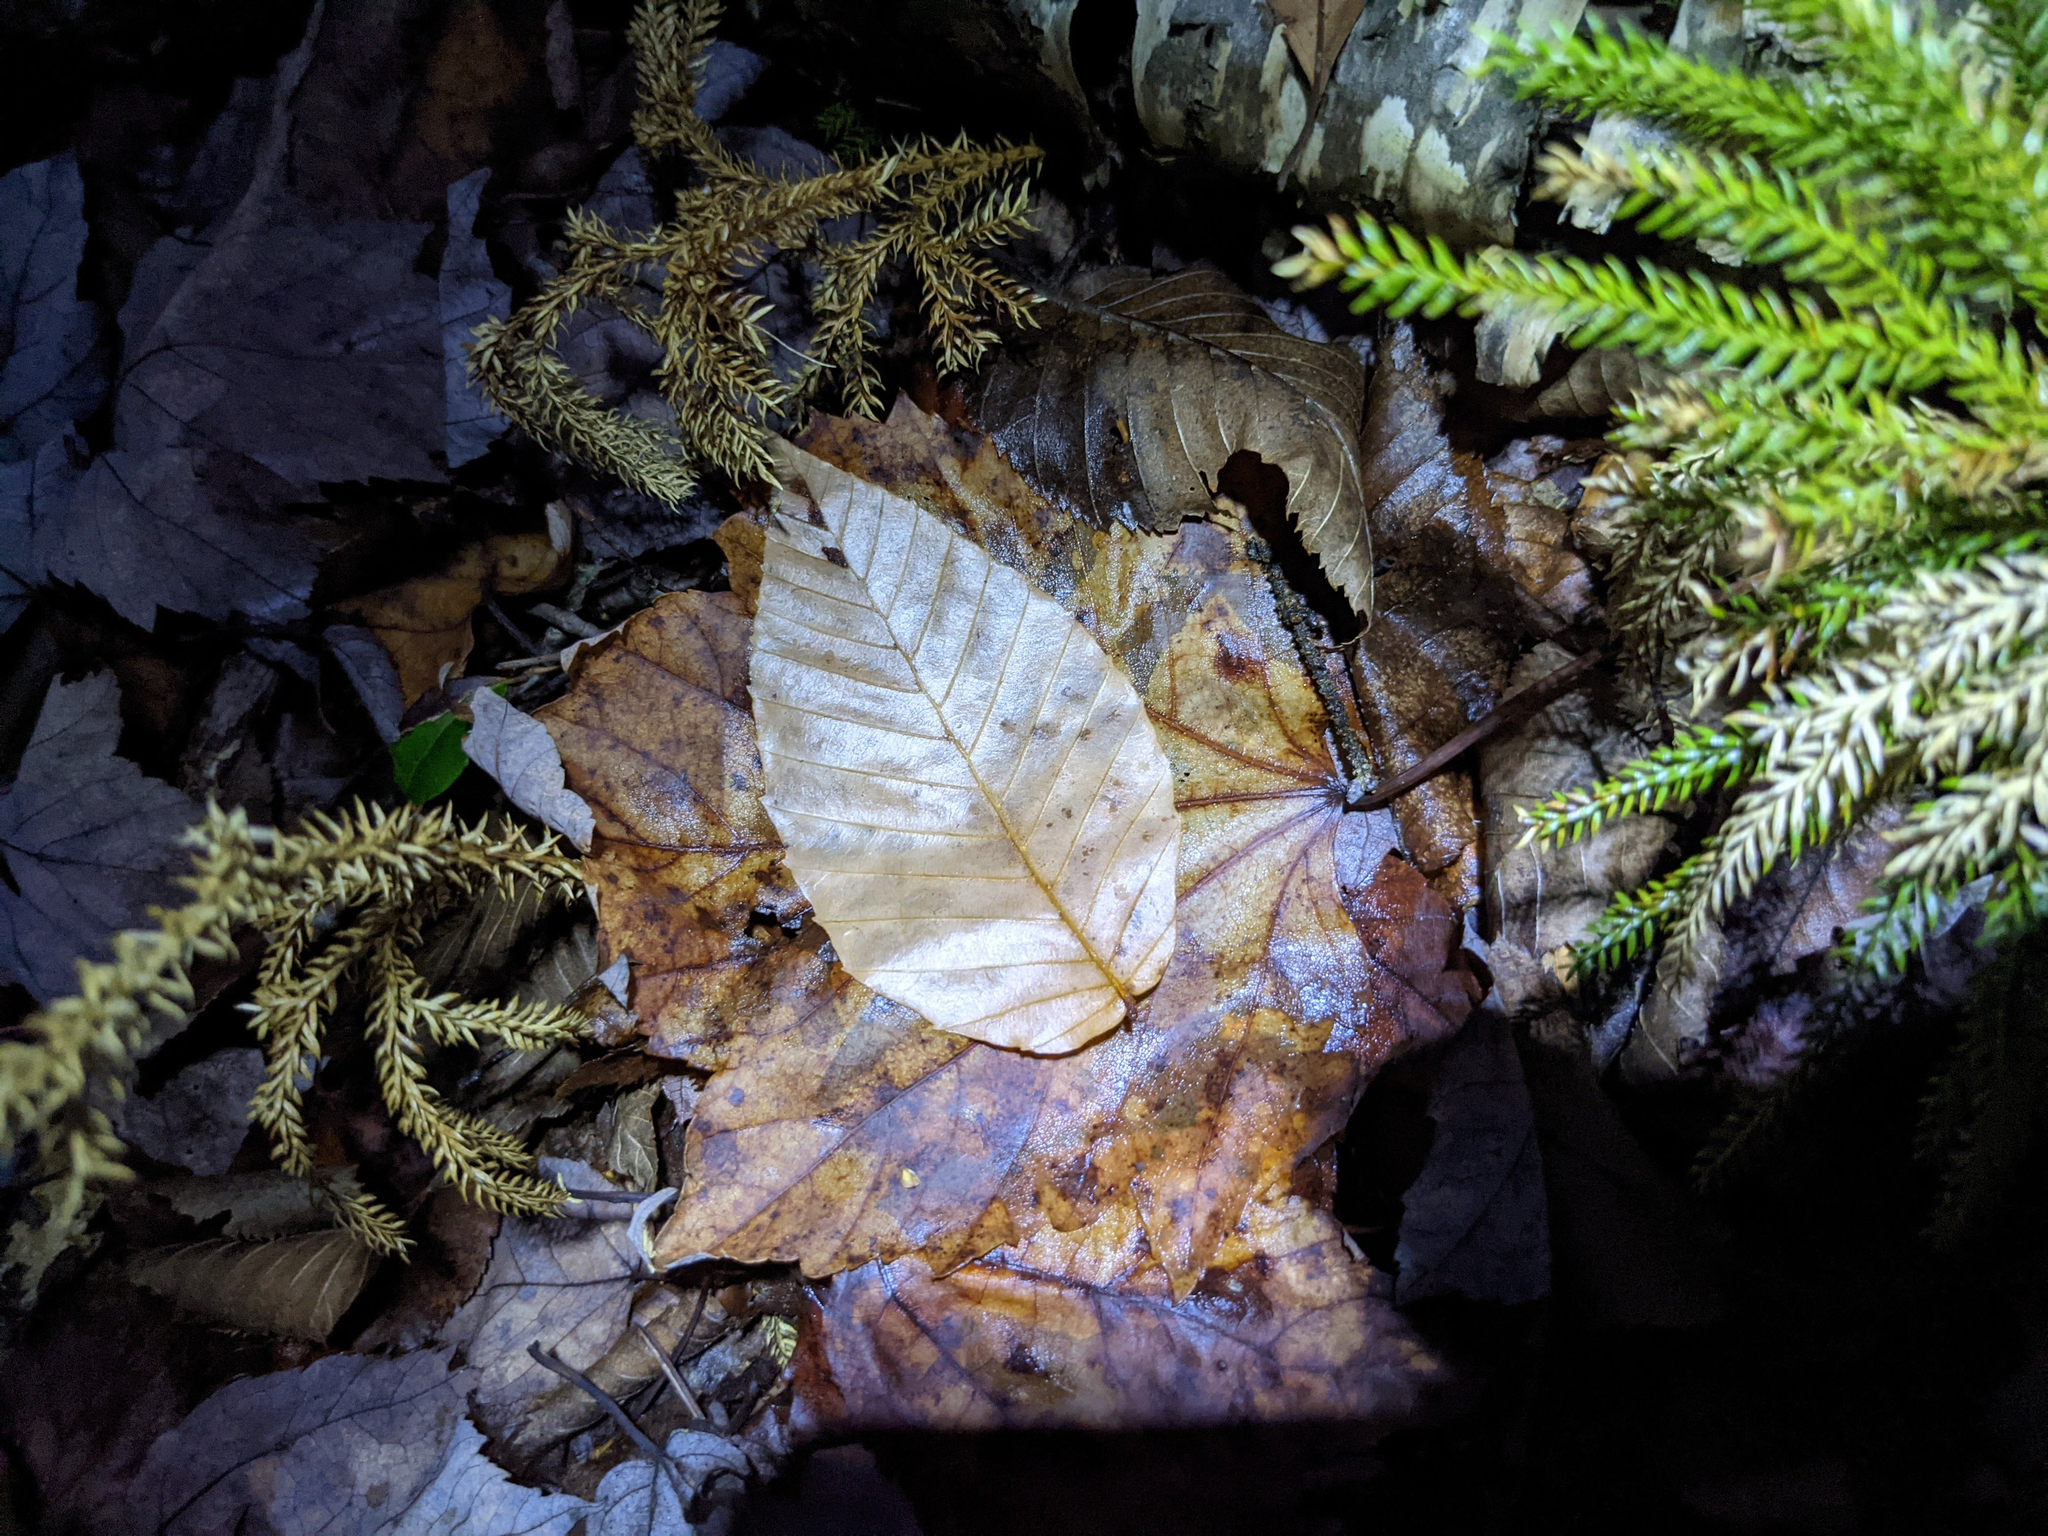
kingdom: Plantae
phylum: Tracheophyta
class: Magnoliopsida
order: Fagales
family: Fagaceae
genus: Fagus
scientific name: Fagus grandifolia
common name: American beech
